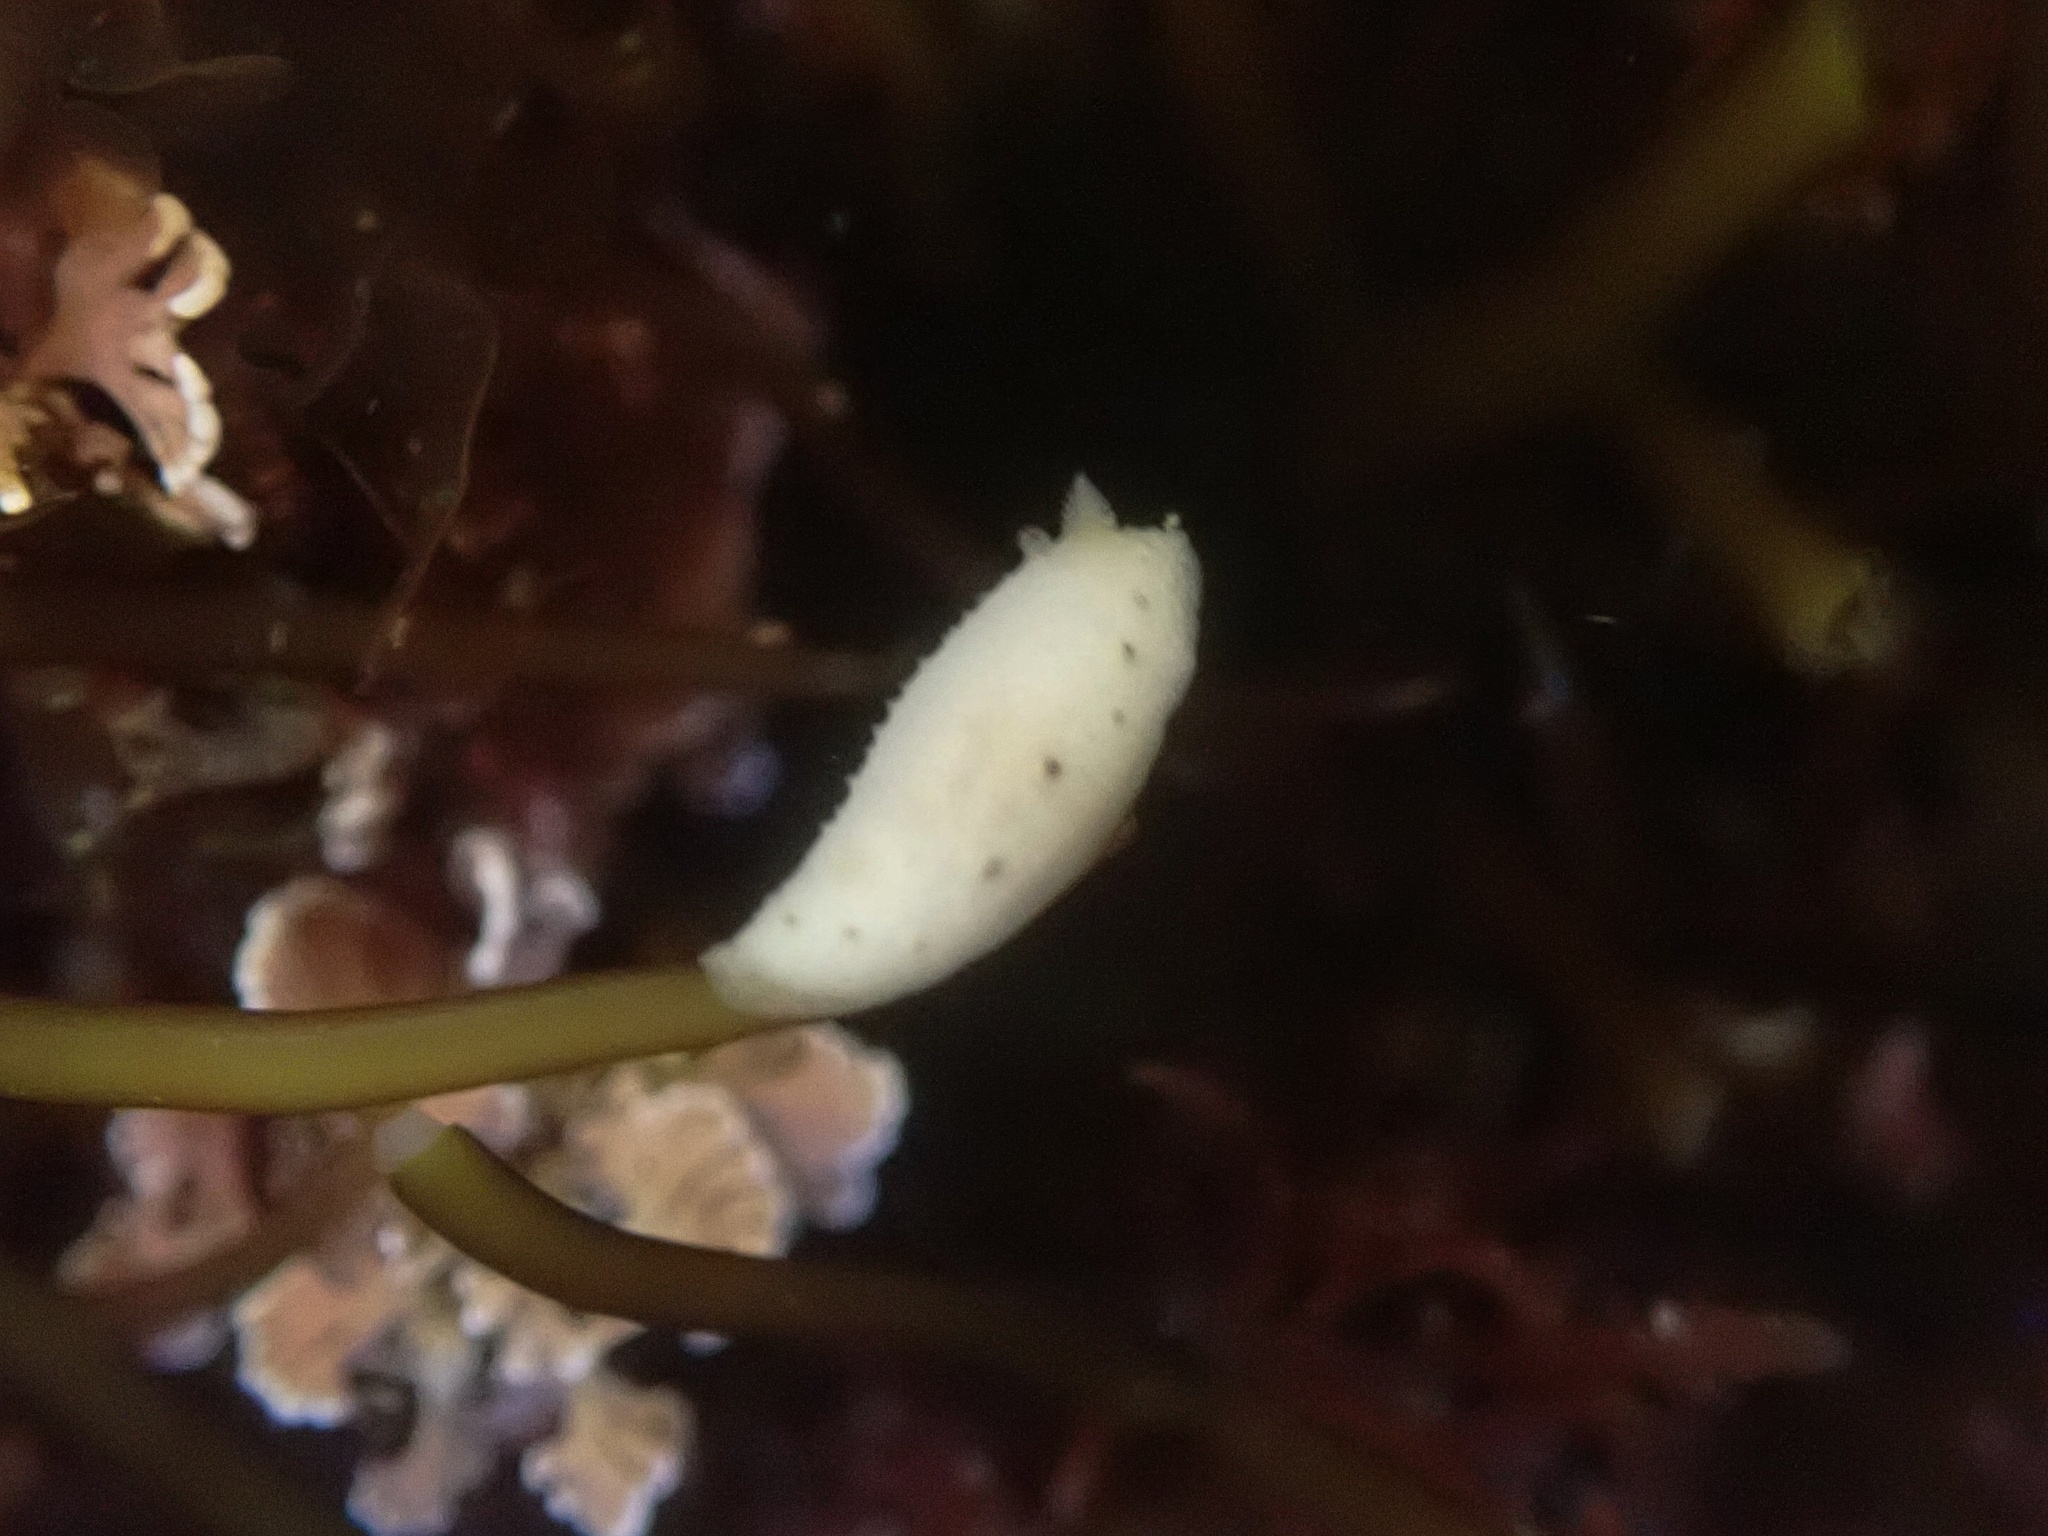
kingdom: Animalia
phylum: Mollusca
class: Gastropoda
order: Nudibranchia
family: Cadlinidae
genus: Cadlina
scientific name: Cadlina sparsa
